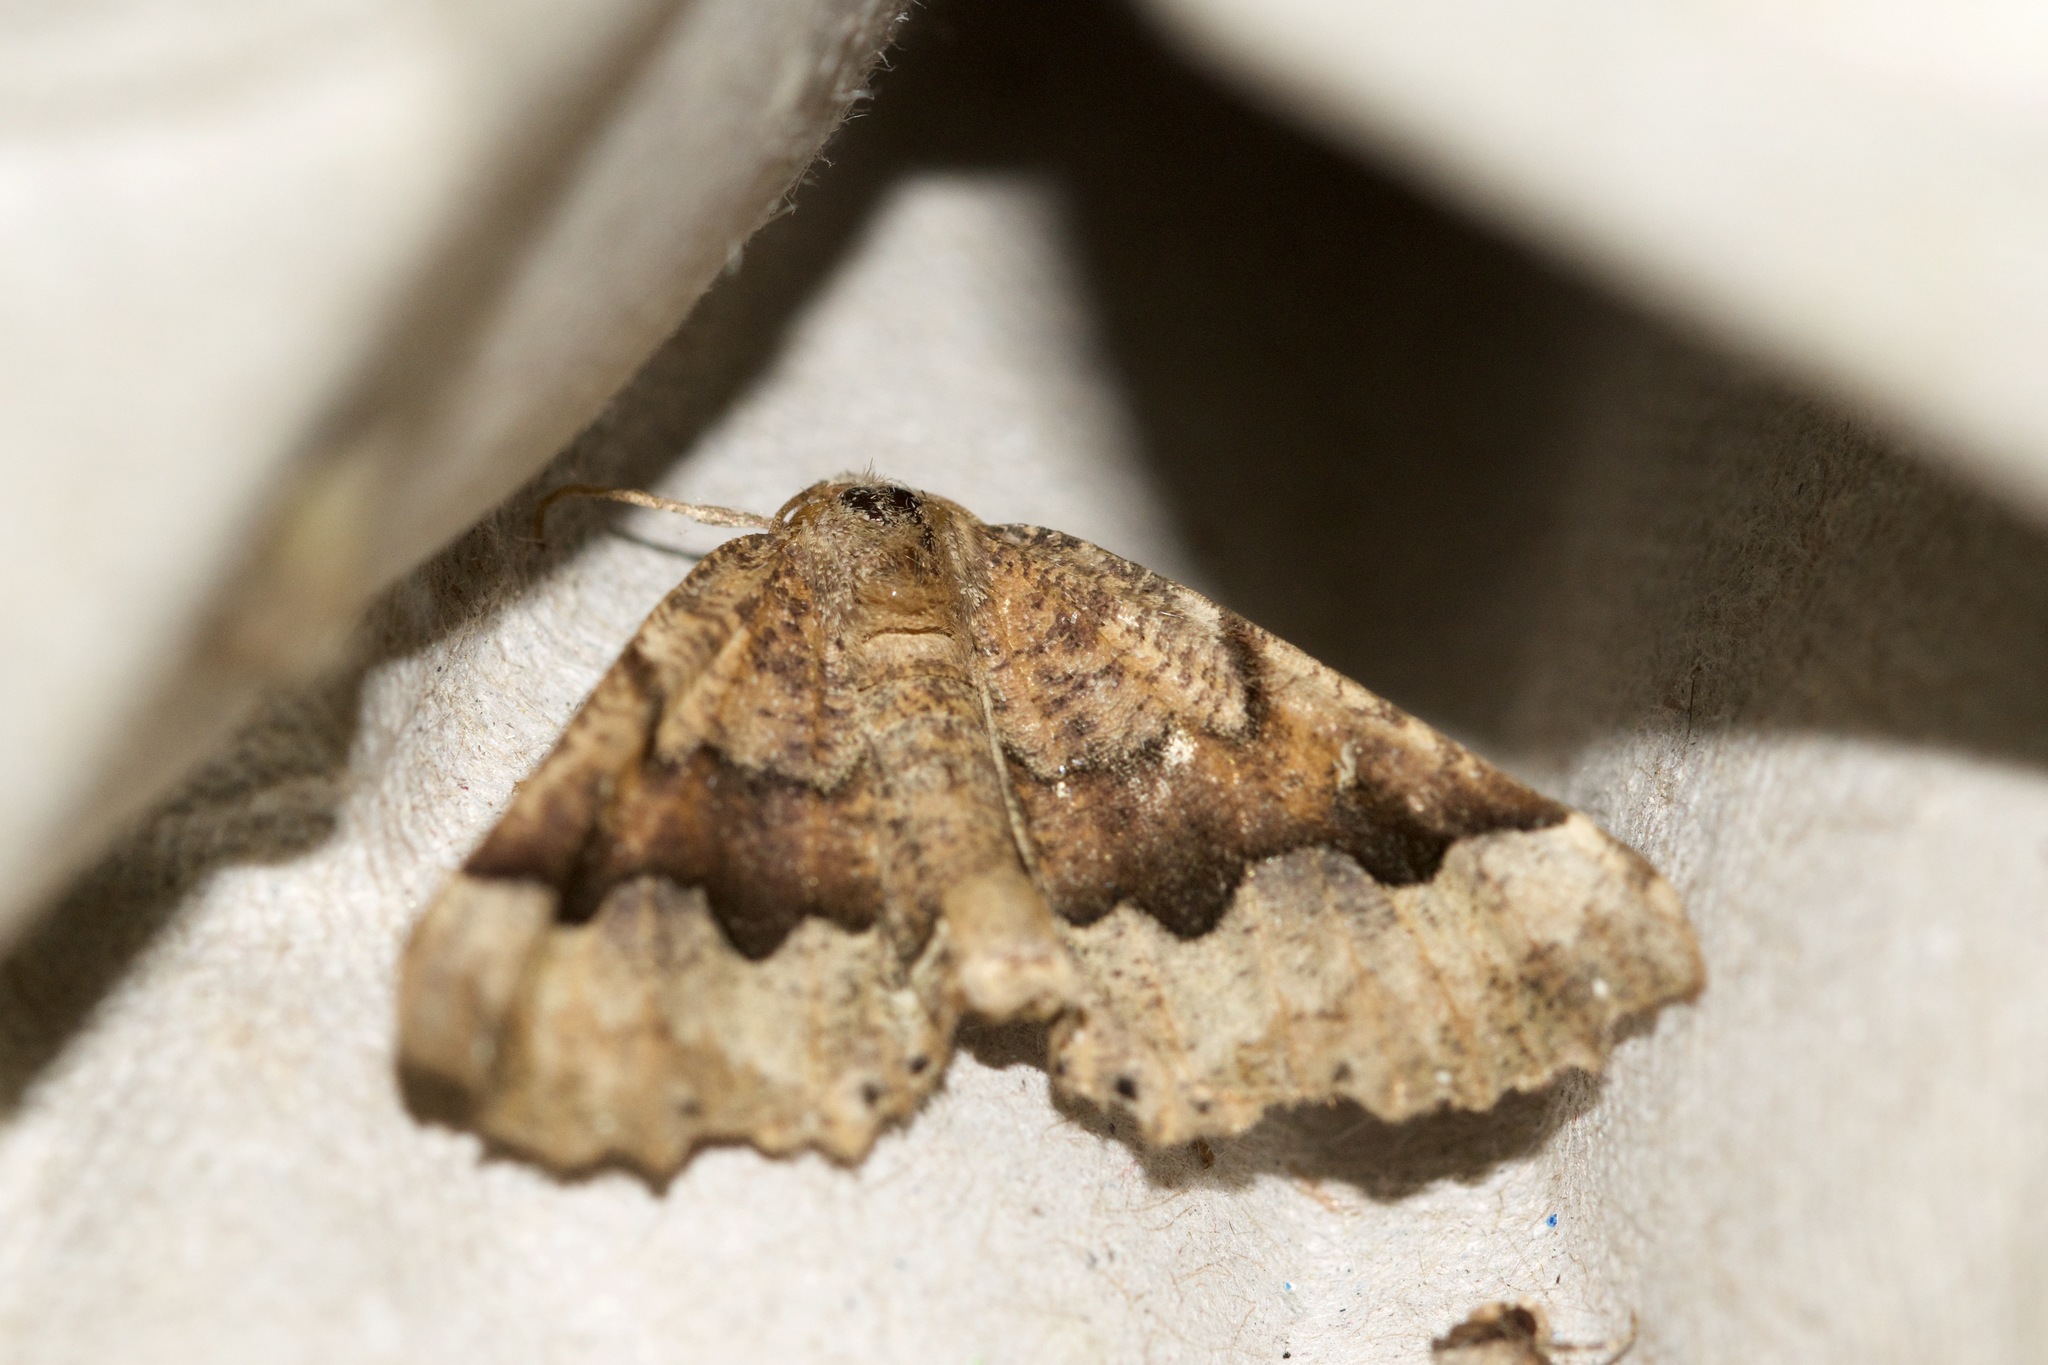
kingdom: Animalia
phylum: Arthropoda
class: Insecta
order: Lepidoptera
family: Geometridae
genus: Pero
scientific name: Pero morrisonaria
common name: Morrison's pero
